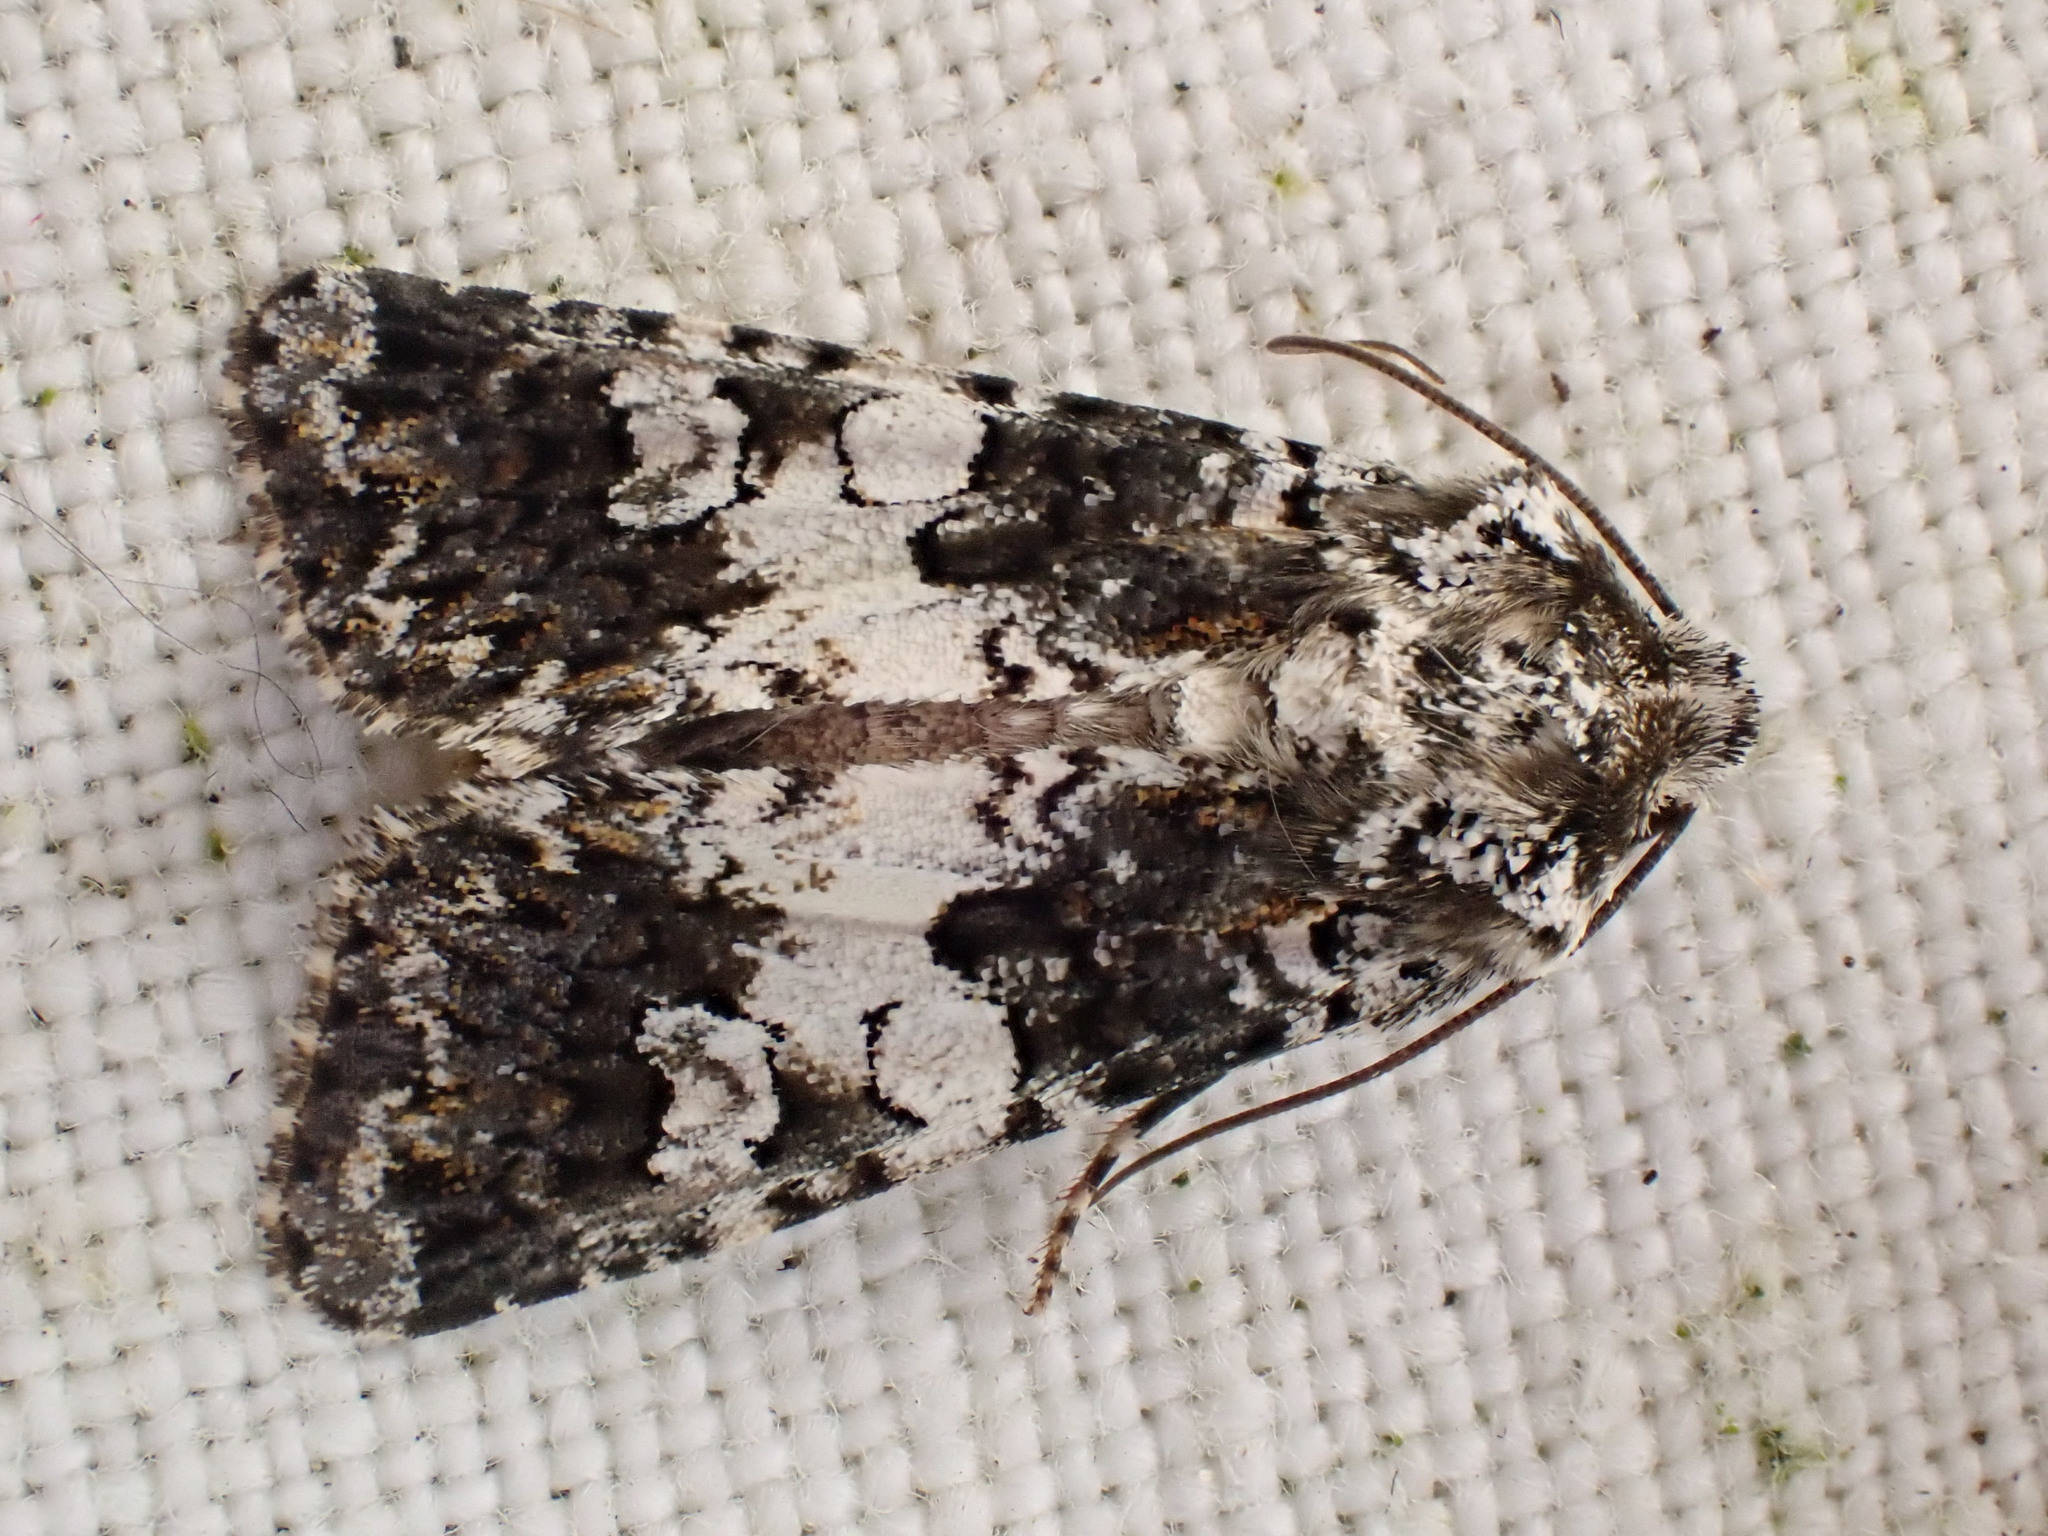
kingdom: Animalia
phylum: Arthropoda
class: Insecta
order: Lepidoptera
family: Noctuidae
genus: Hadena
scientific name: Hadena compta
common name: Varied coronet
